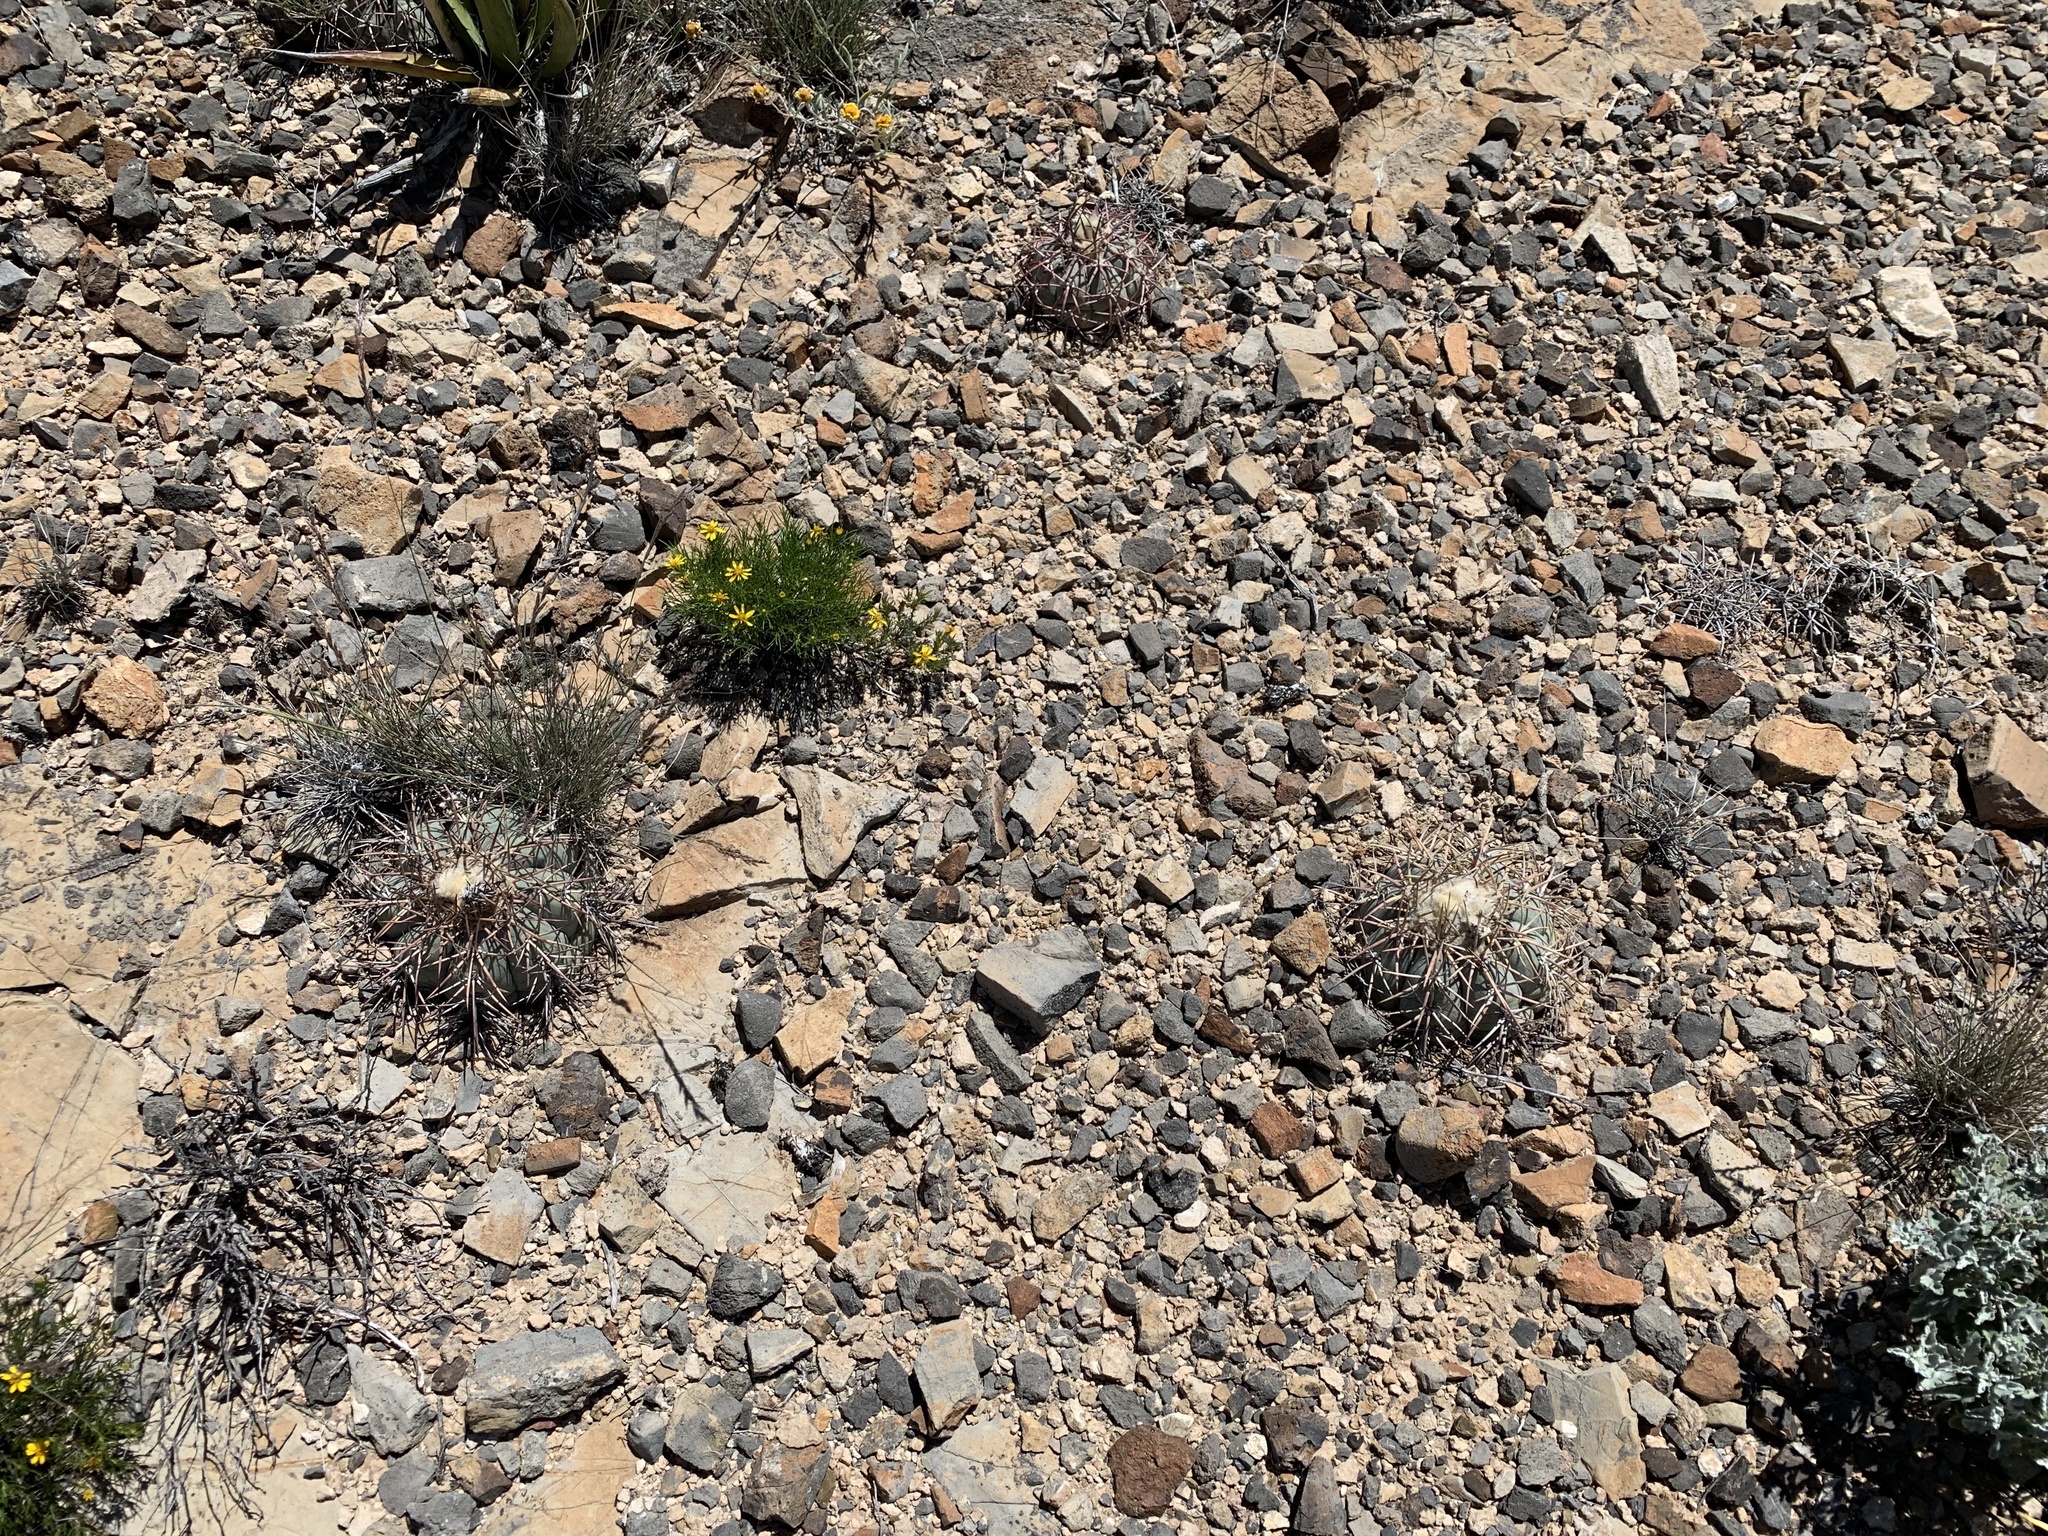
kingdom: Plantae
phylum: Tracheophyta
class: Magnoliopsida
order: Caryophyllales
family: Cactaceae
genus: Echinocactus
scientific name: Echinocactus horizonthalonius
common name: Devilshead
